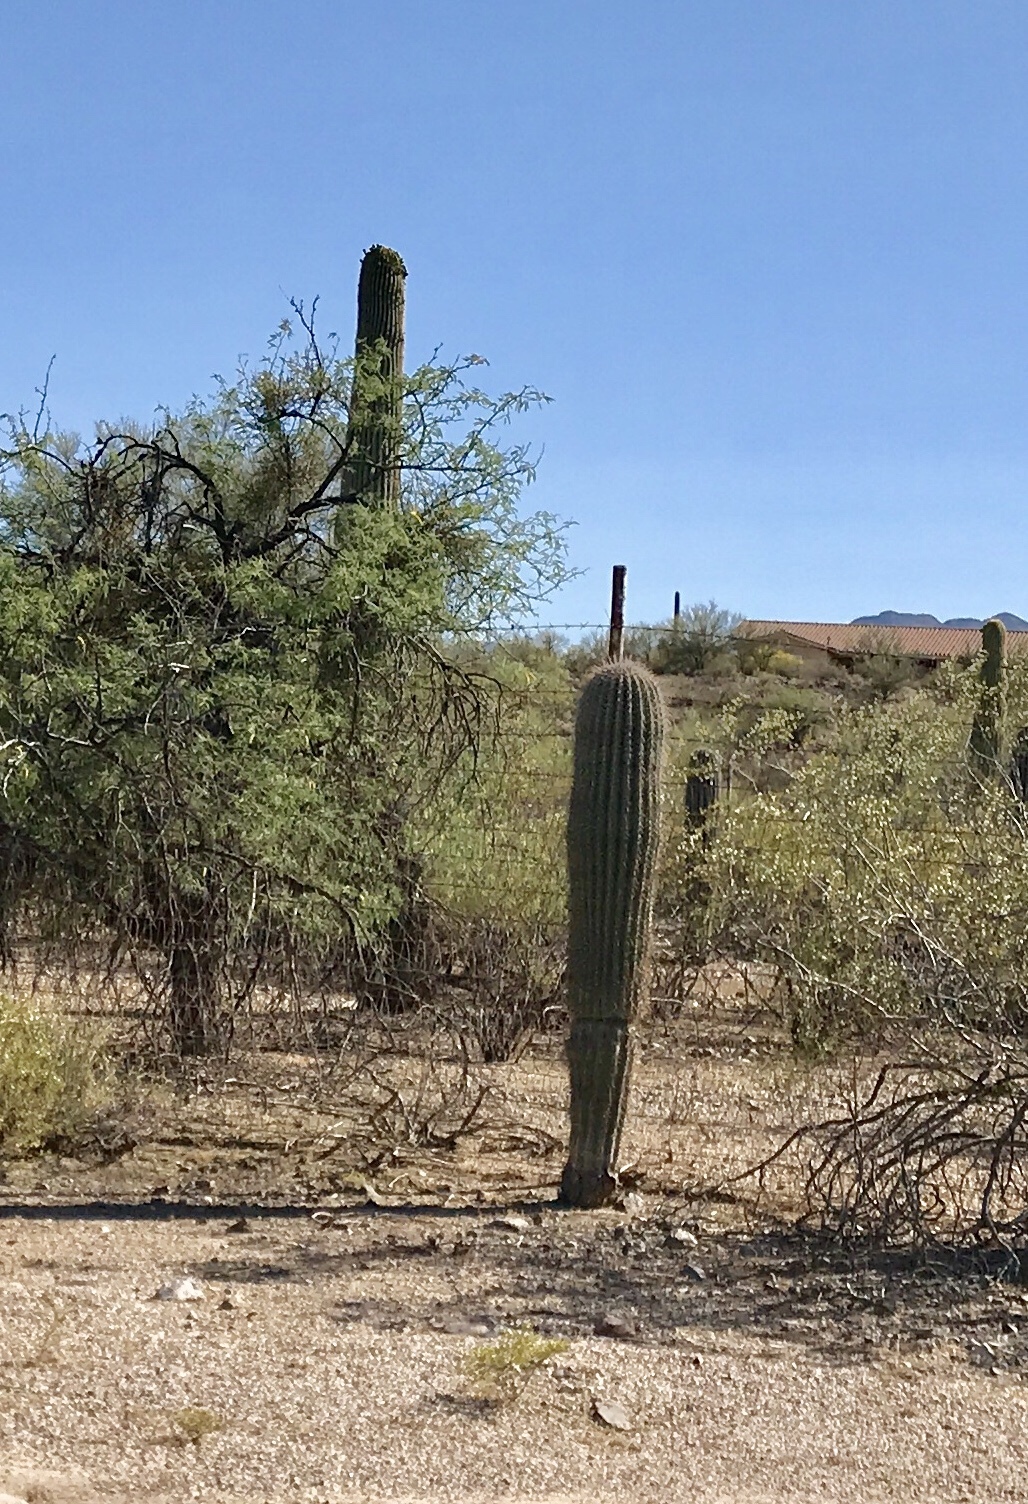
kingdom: Plantae
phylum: Tracheophyta
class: Magnoliopsida
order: Caryophyllales
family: Cactaceae
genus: Carnegiea
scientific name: Carnegiea gigantea
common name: Saguaro
